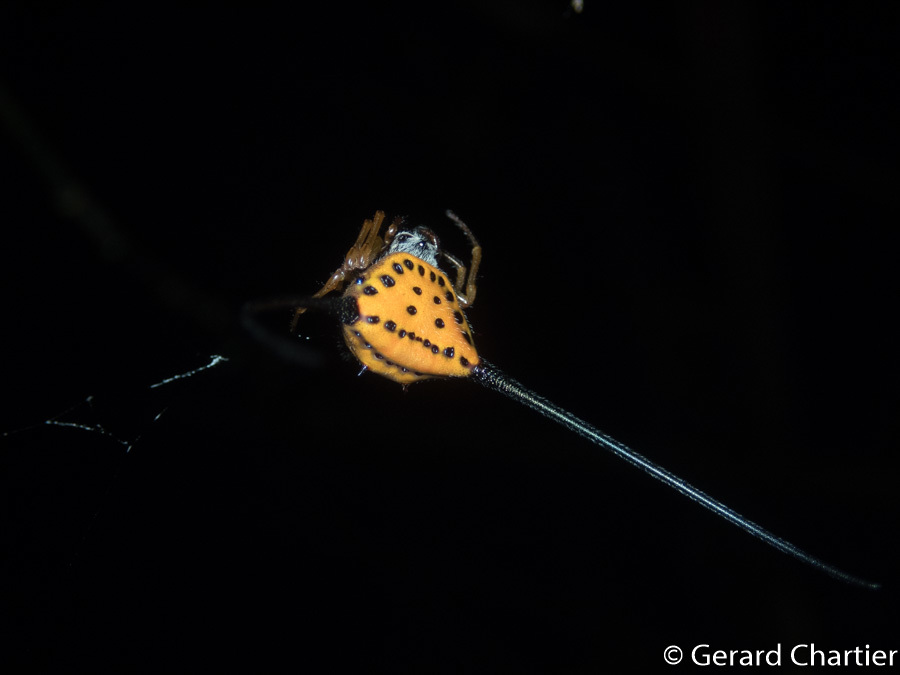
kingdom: Animalia
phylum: Arthropoda
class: Arachnida
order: Araneae
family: Araneidae
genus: Macracantha
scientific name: Macracantha arcuata
